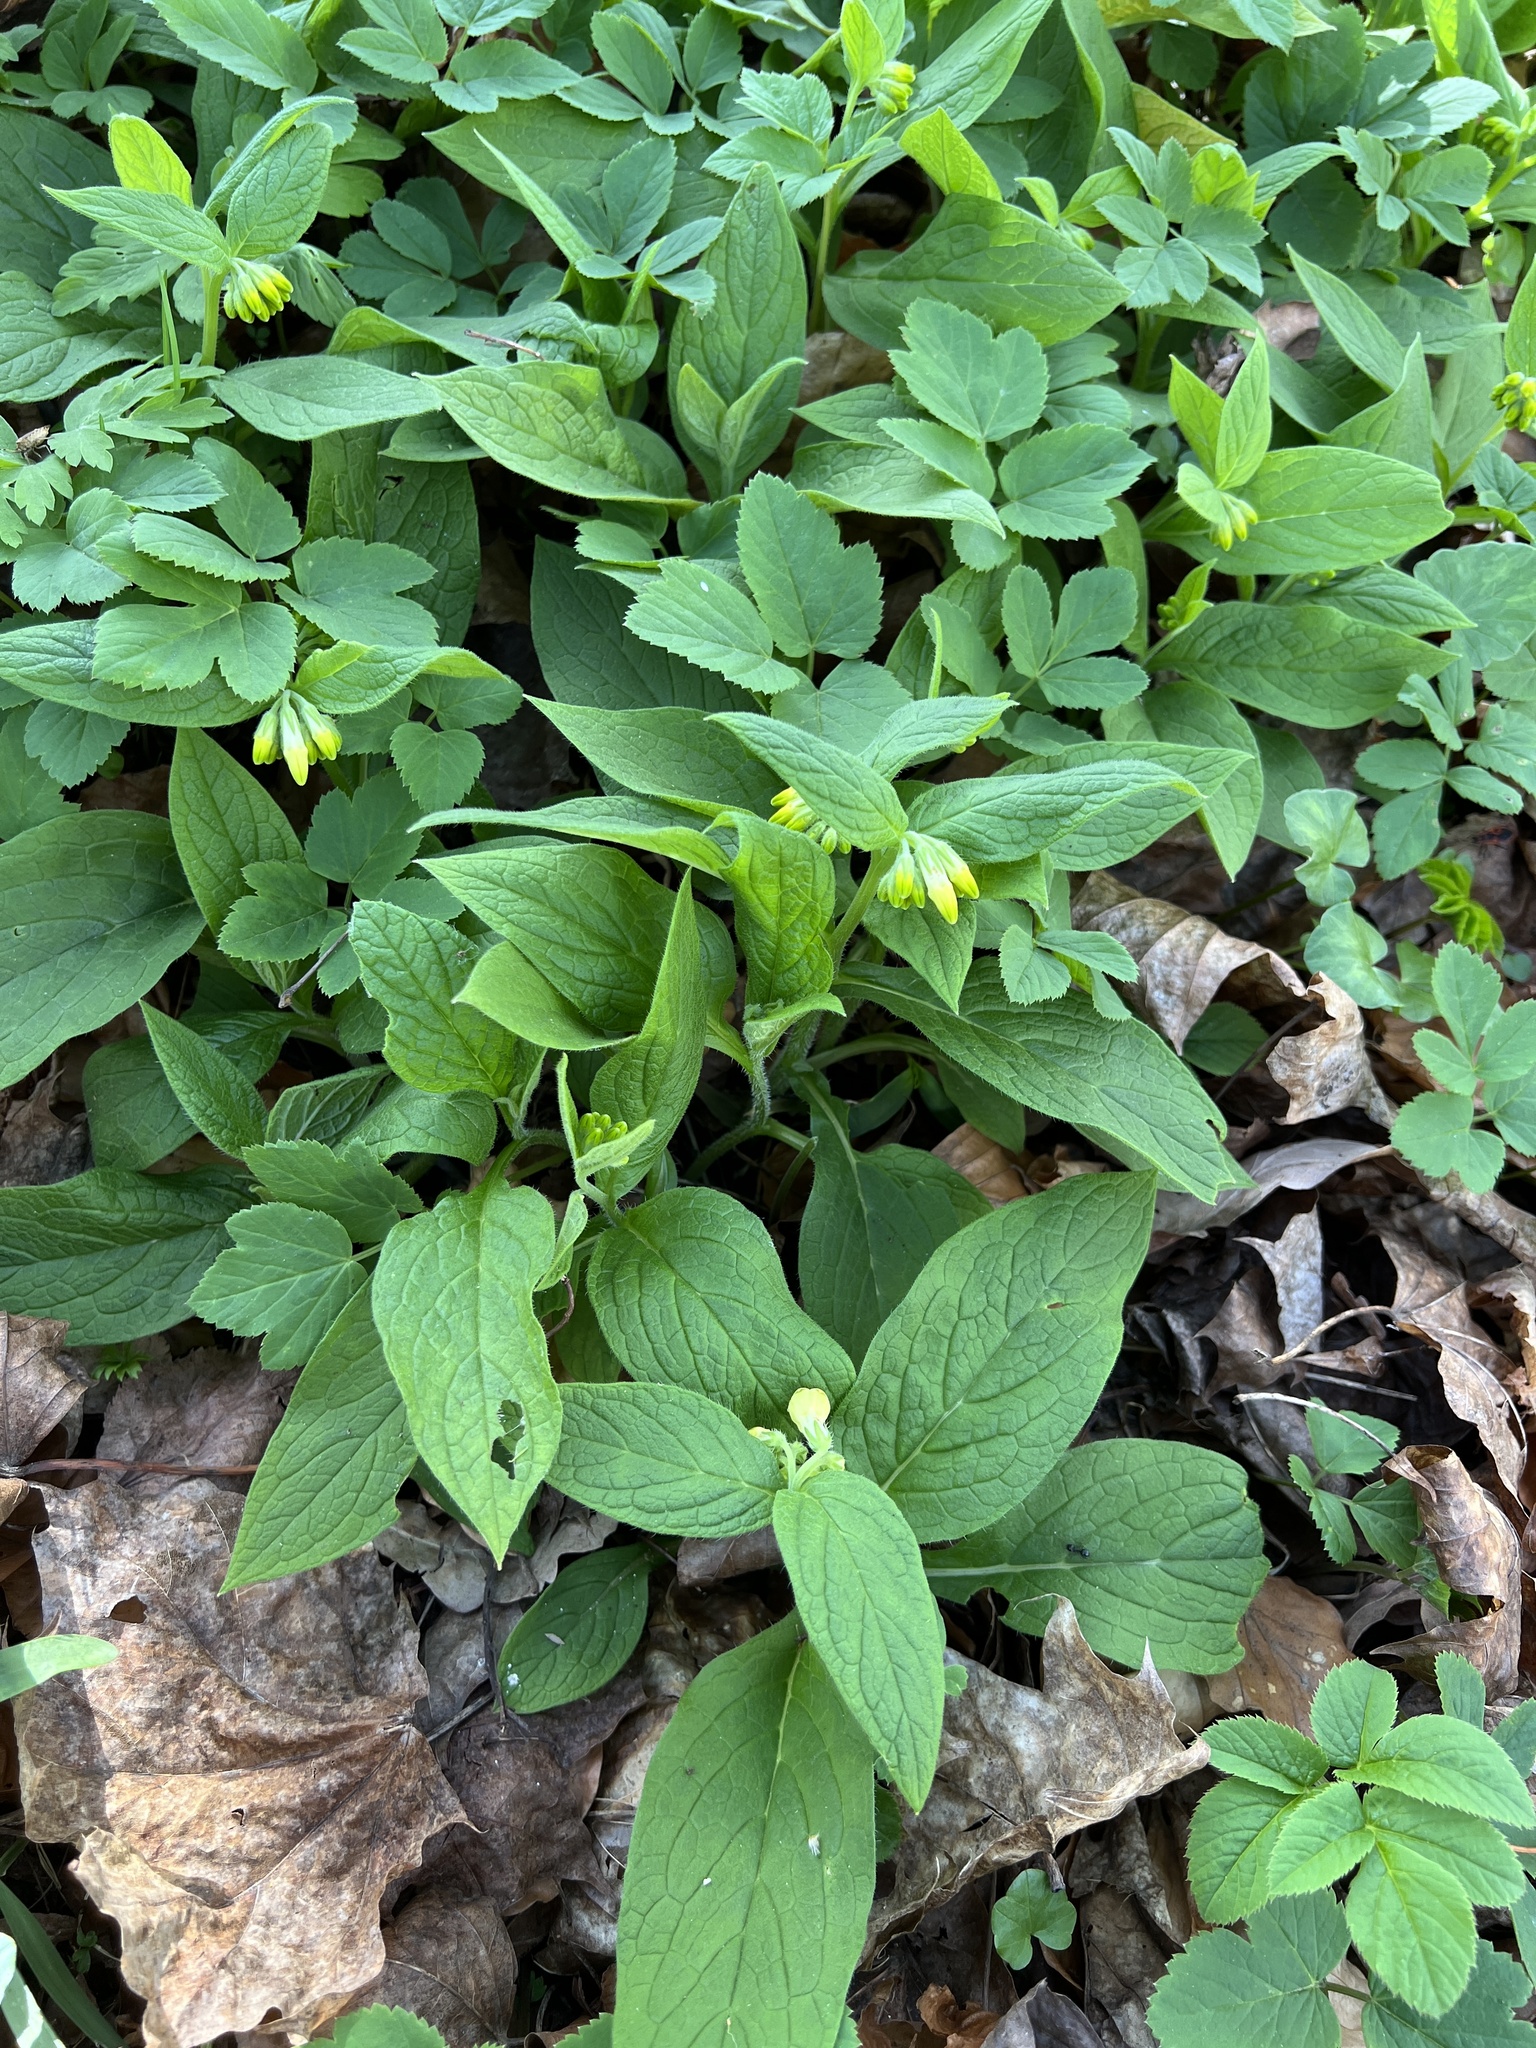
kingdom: Plantae
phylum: Tracheophyta
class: Magnoliopsida
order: Boraginales
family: Boraginaceae
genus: Symphytum
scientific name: Symphytum tuberosum
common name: Tuberous comfrey
